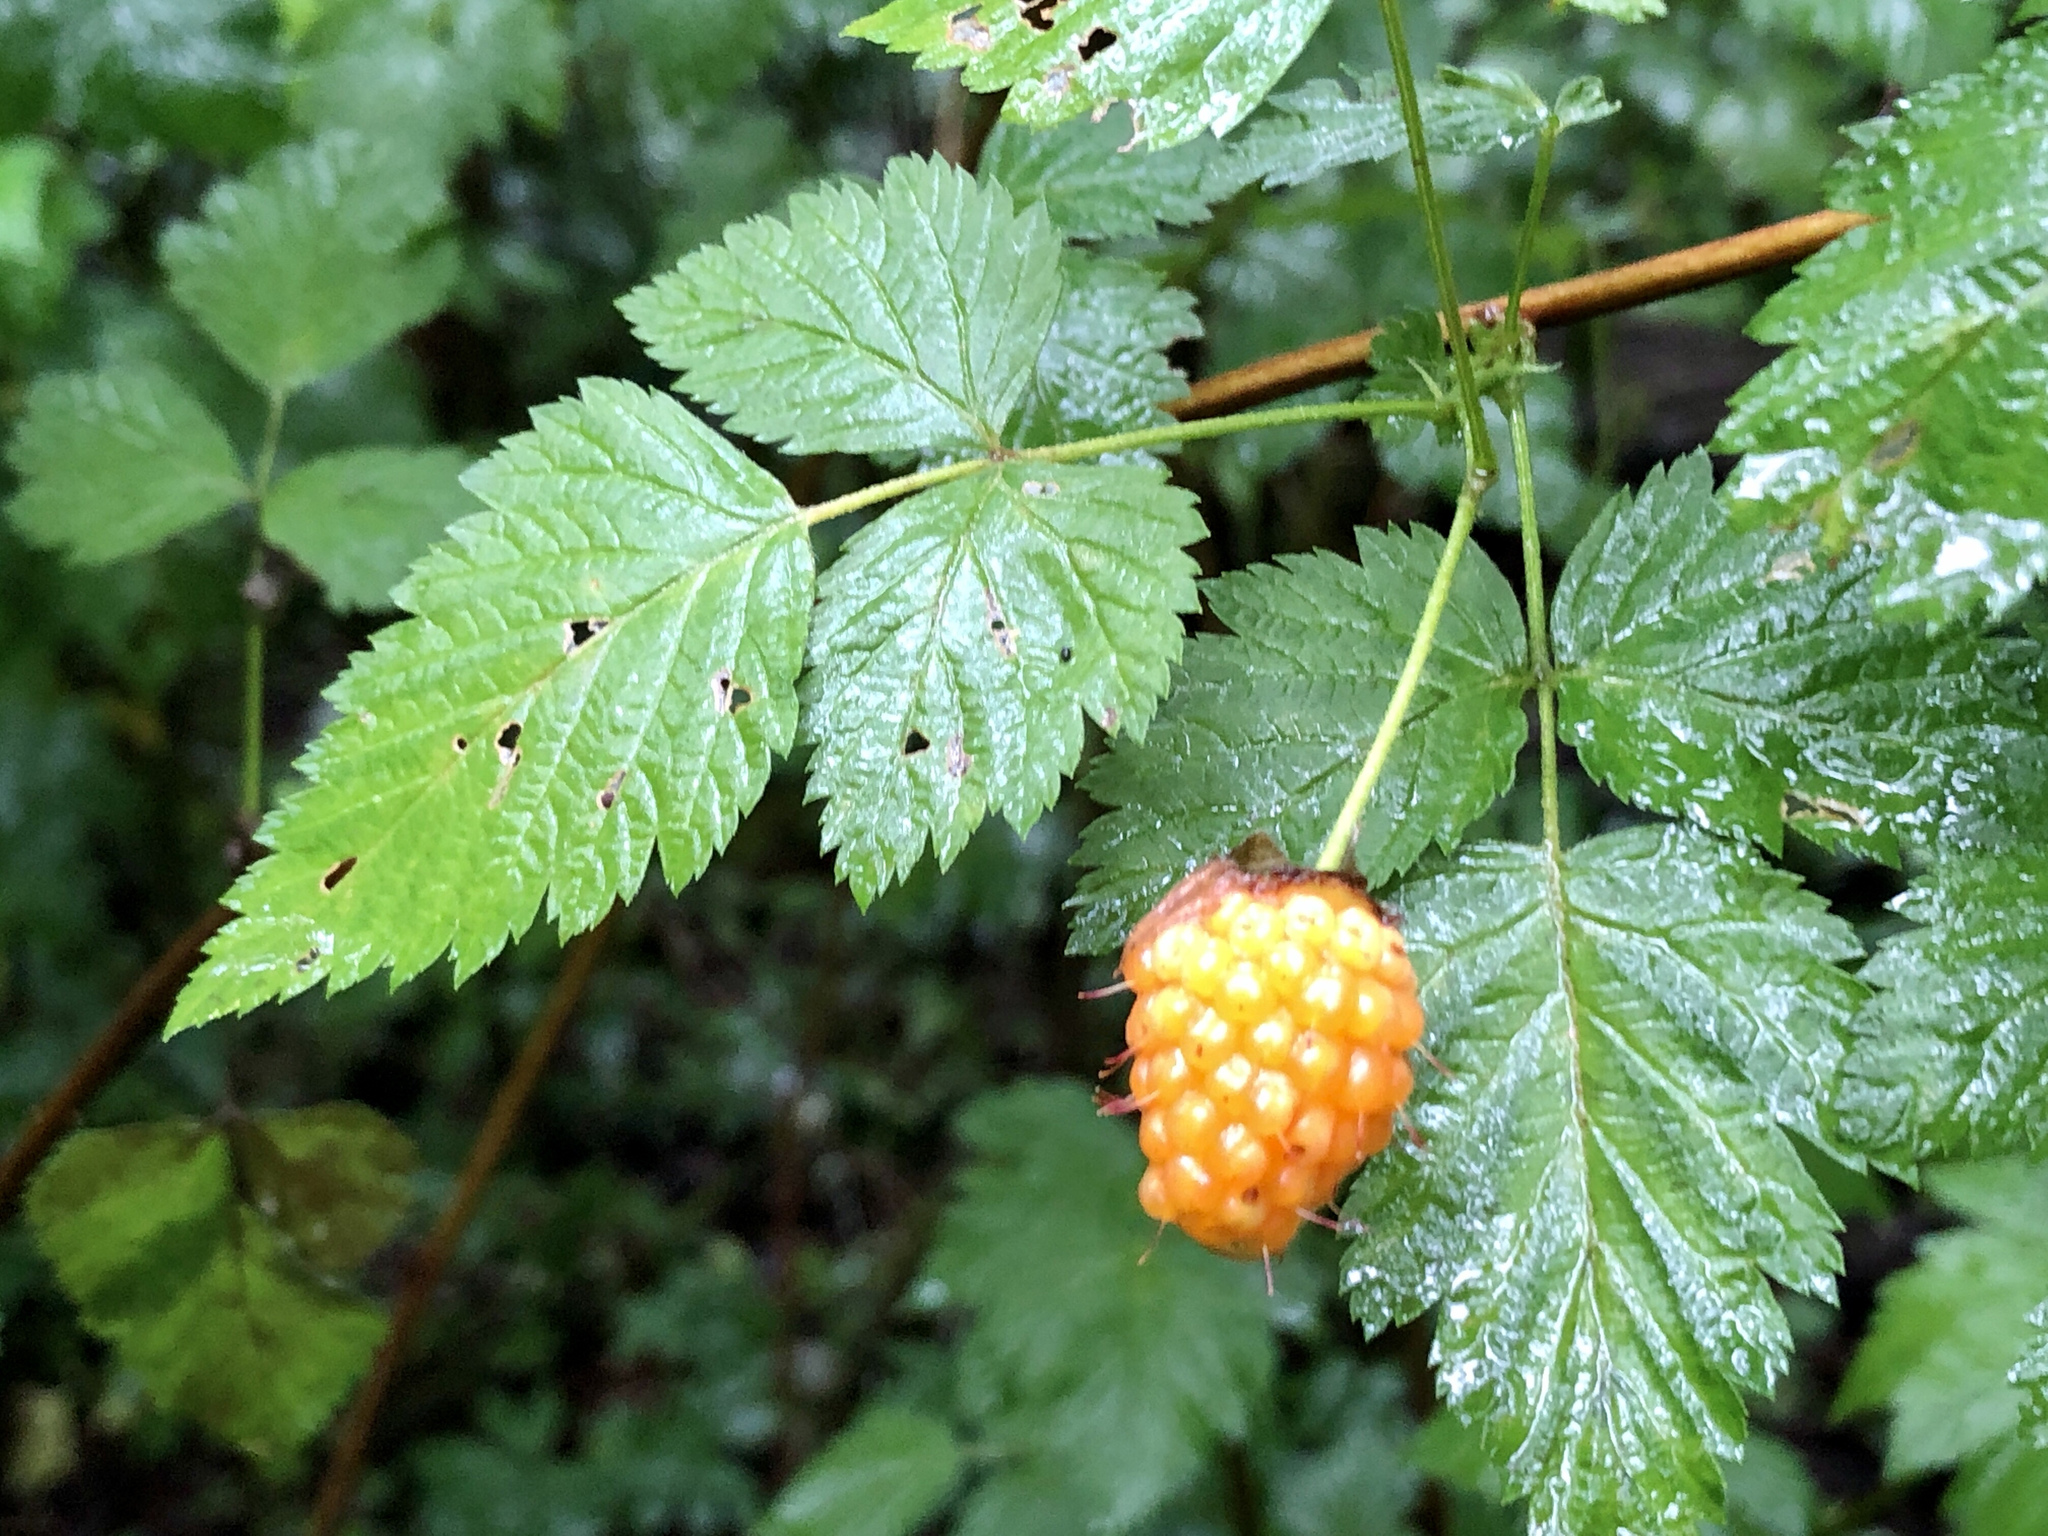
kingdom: Plantae
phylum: Tracheophyta
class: Magnoliopsida
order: Rosales
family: Rosaceae
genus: Rubus
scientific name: Rubus spectabilis
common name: Salmonberry
